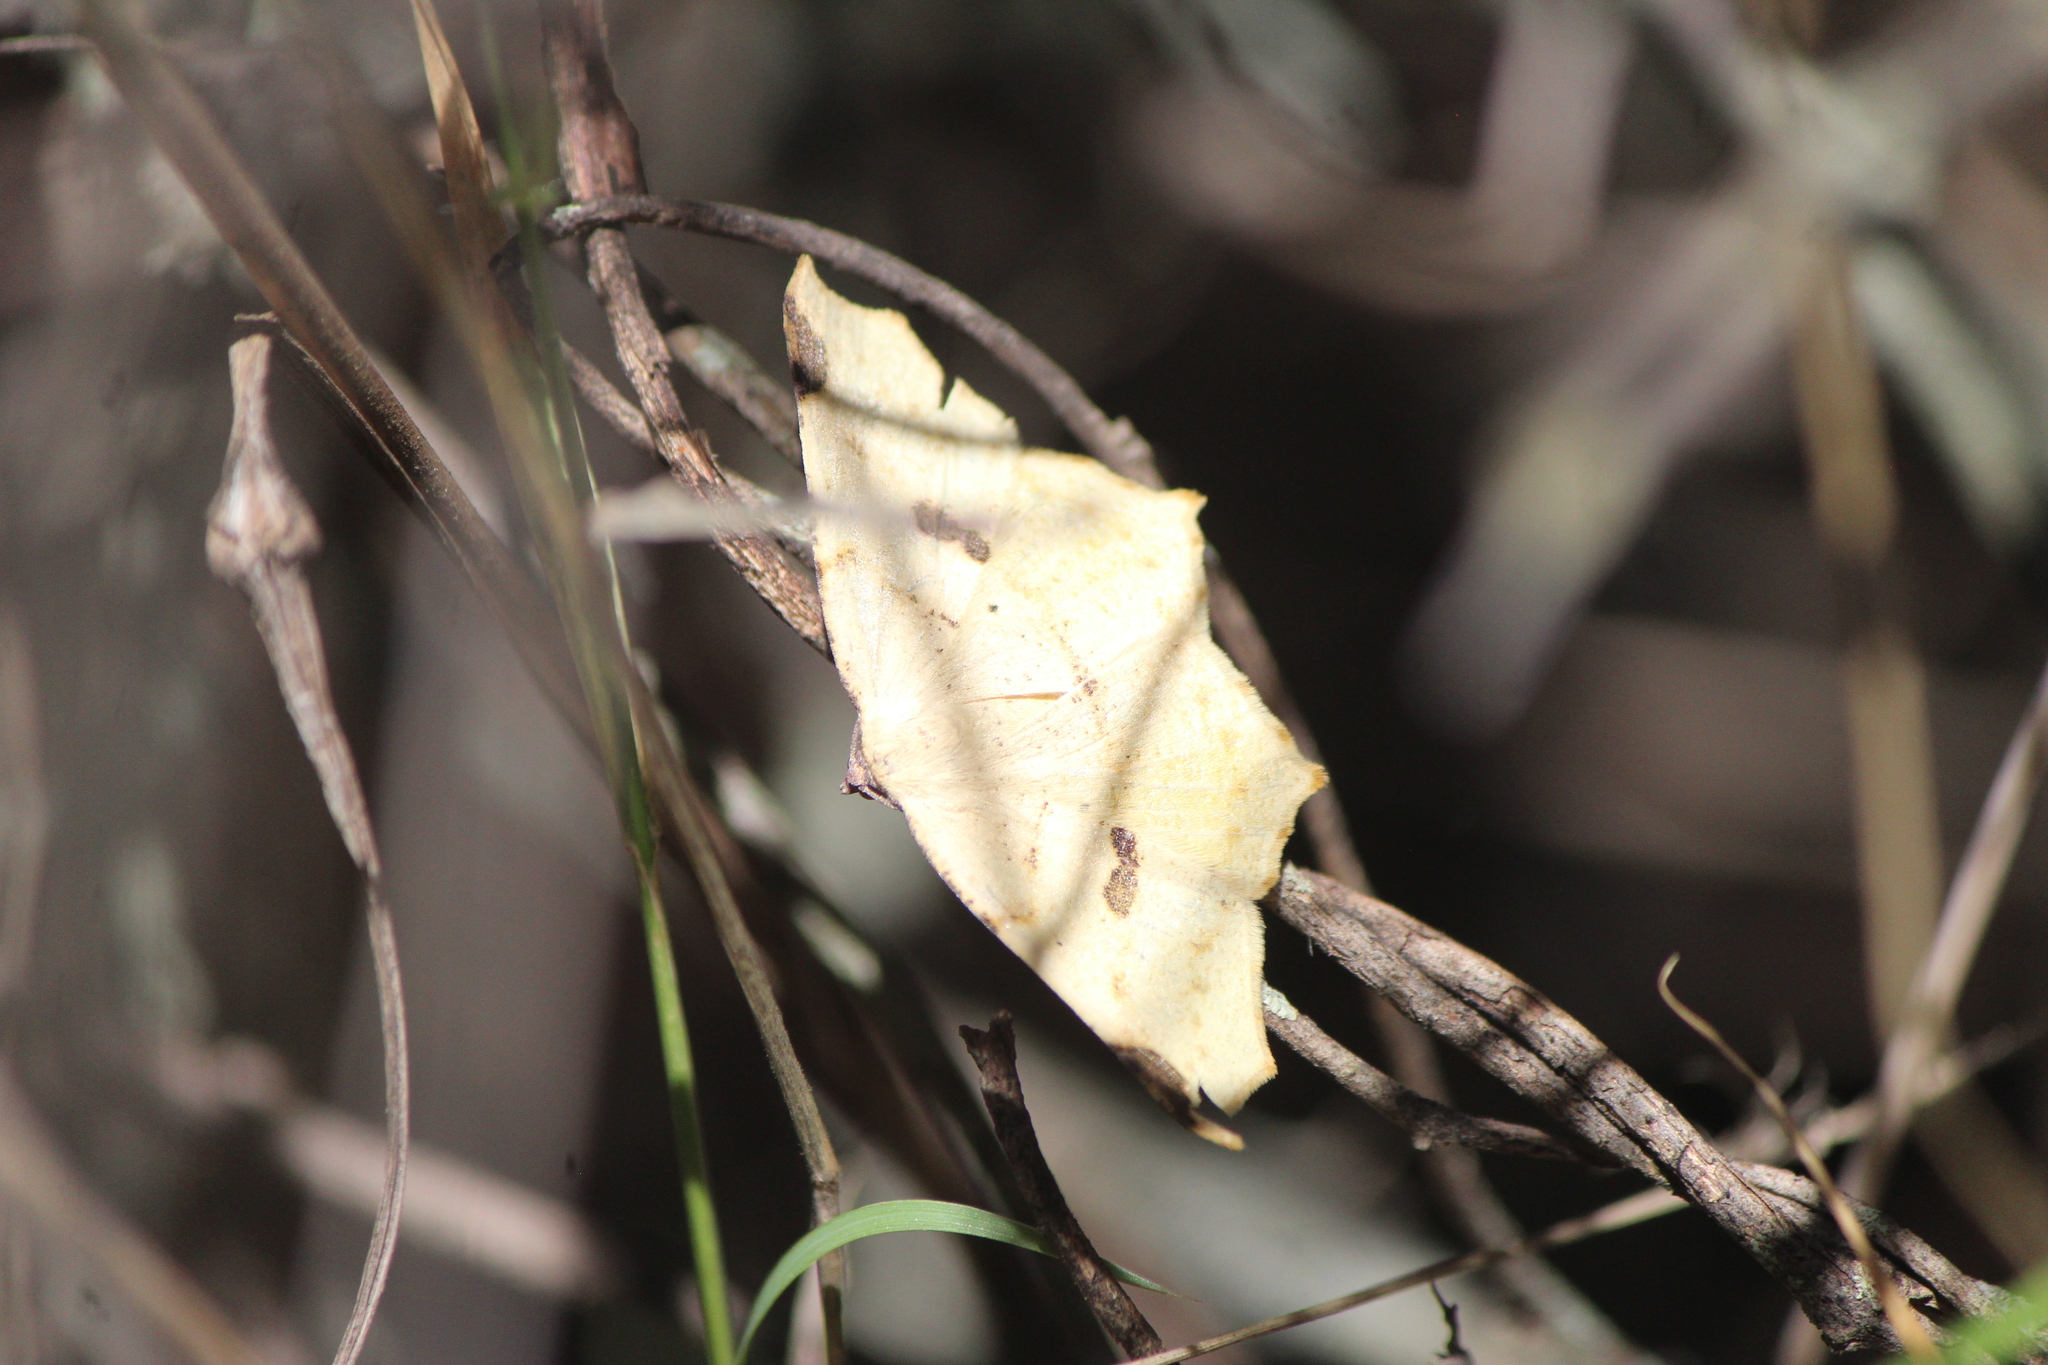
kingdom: Animalia
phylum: Arthropoda
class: Insecta
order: Lepidoptera
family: Geometridae
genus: Antepione
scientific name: Antepione thisoaria
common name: Variable antipione
